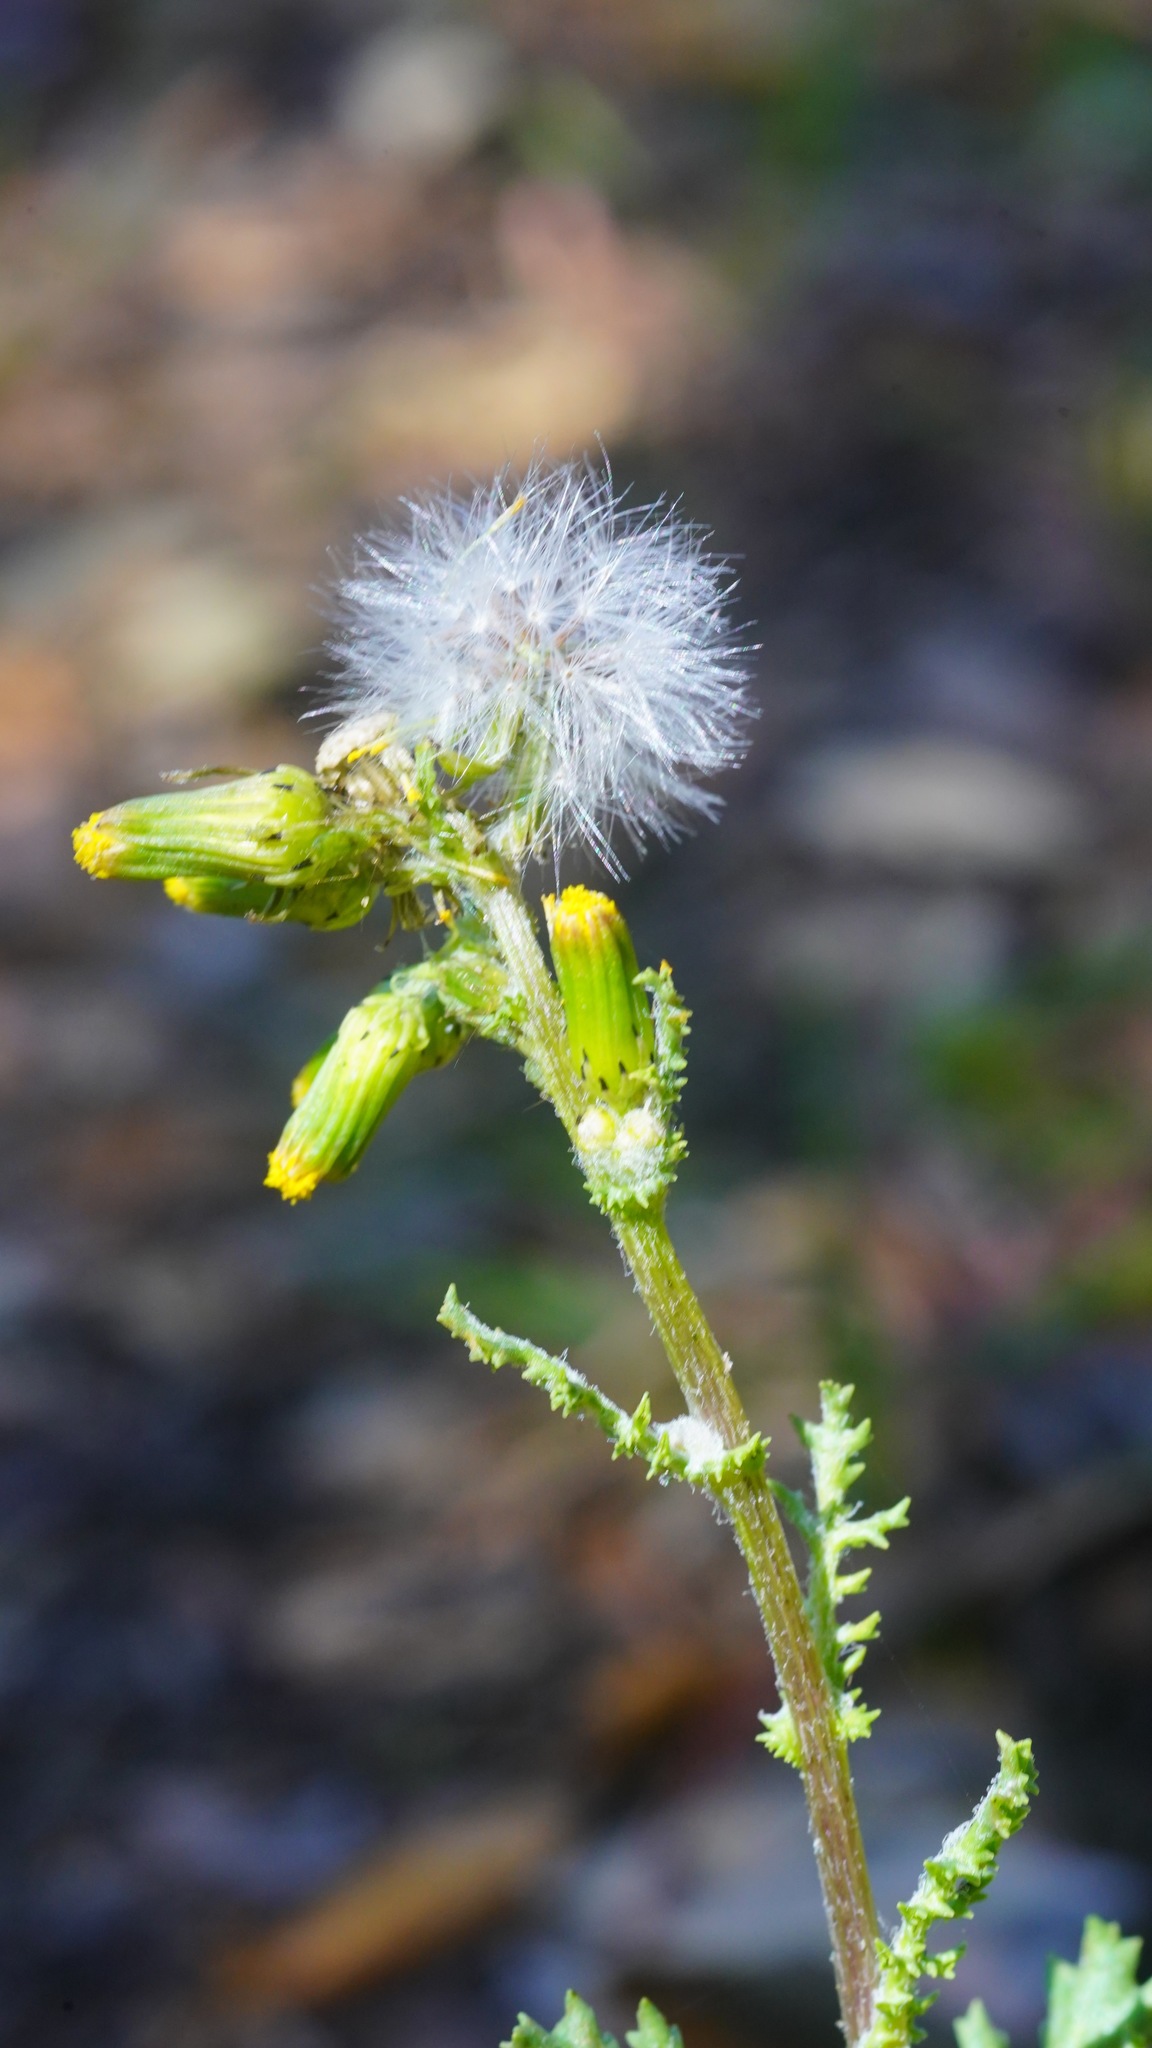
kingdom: Plantae
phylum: Tracheophyta
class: Magnoliopsida
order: Asterales
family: Asteraceae
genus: Senecio
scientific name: Senecio vulgaris
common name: Old-man-in-the-spring
